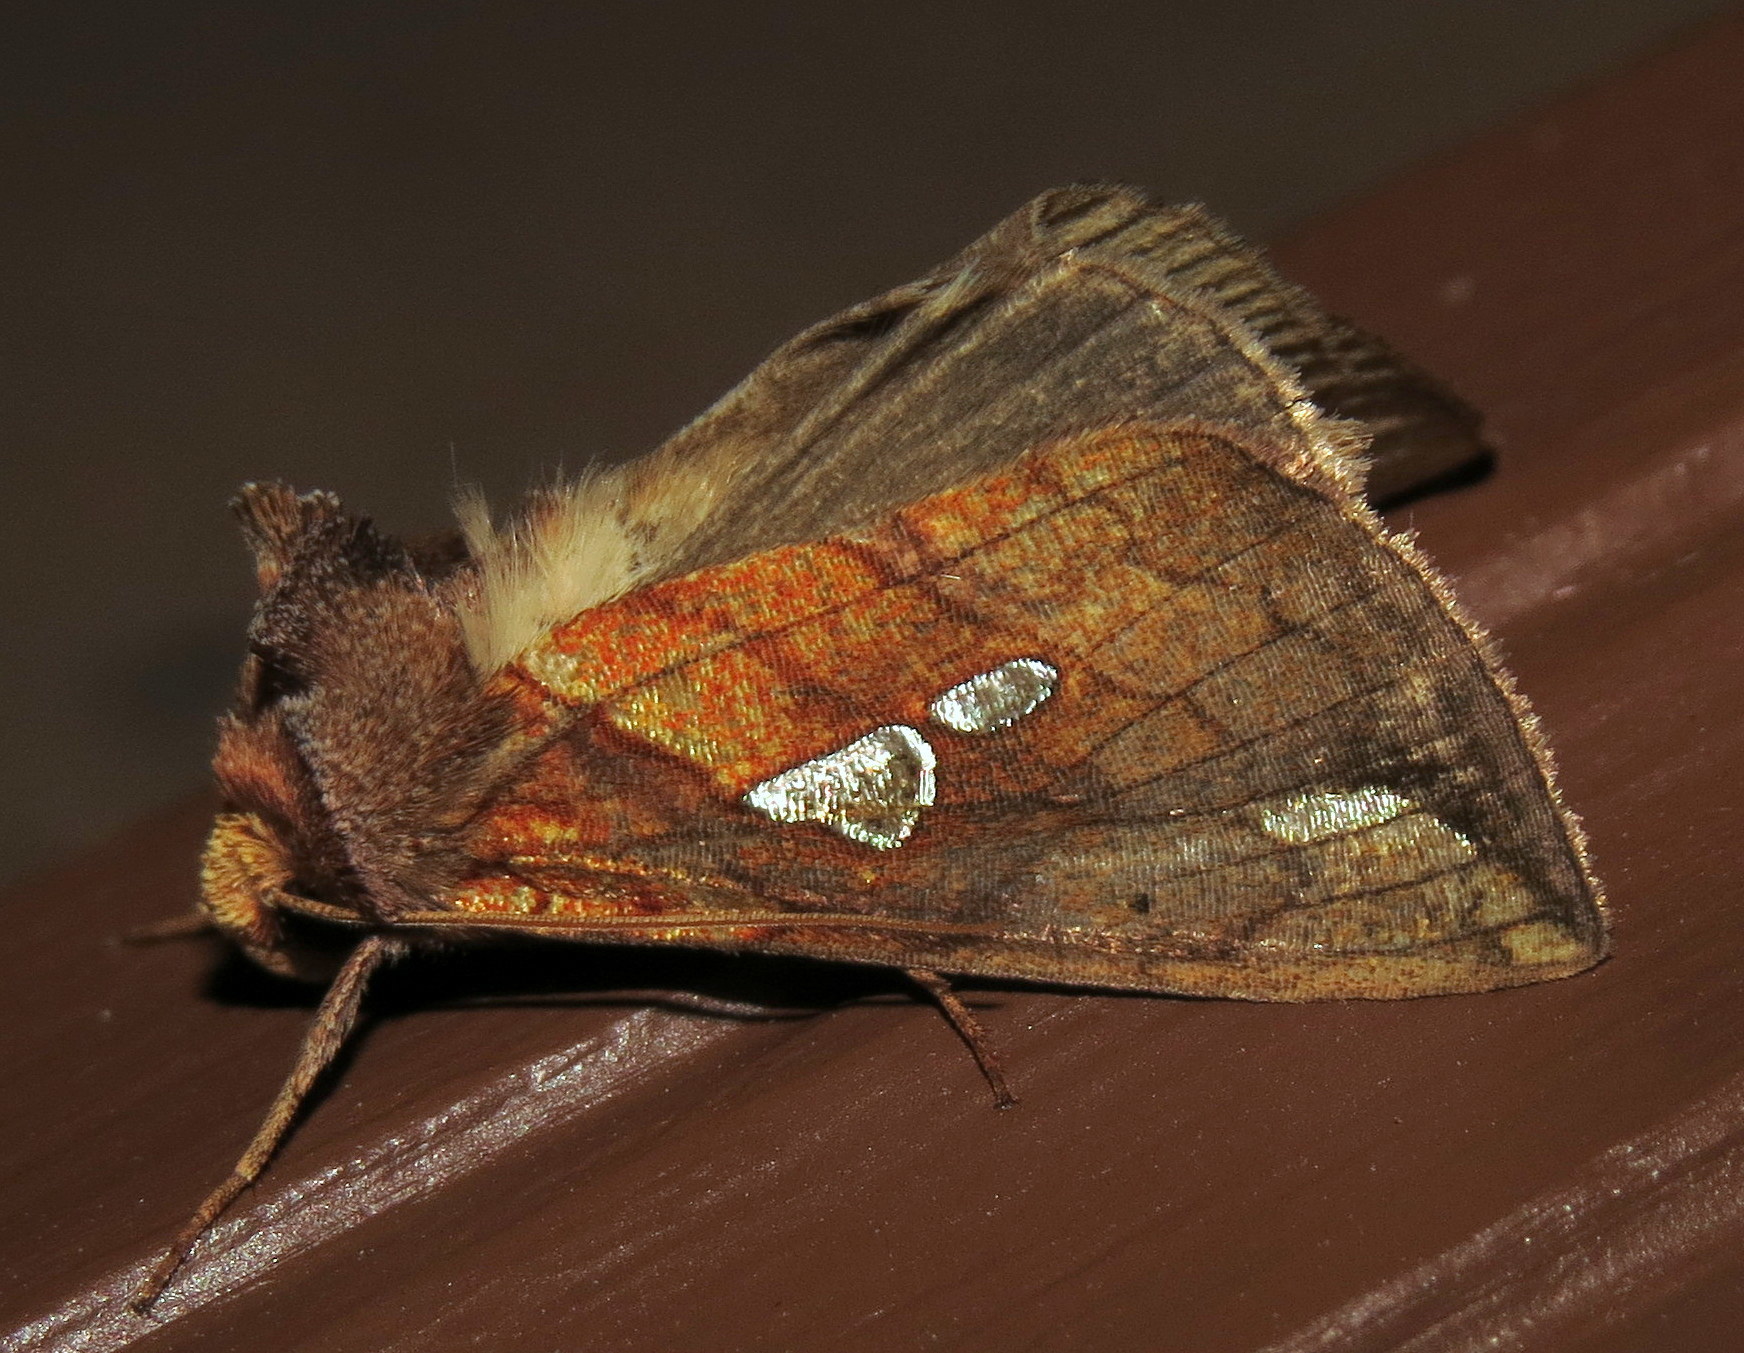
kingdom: Animalia
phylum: Arthropoda
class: Insecta
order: Lepidoptera
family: Noctuidae
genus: Plusia
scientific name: Plusia putnami
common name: Lempke's gold spot
